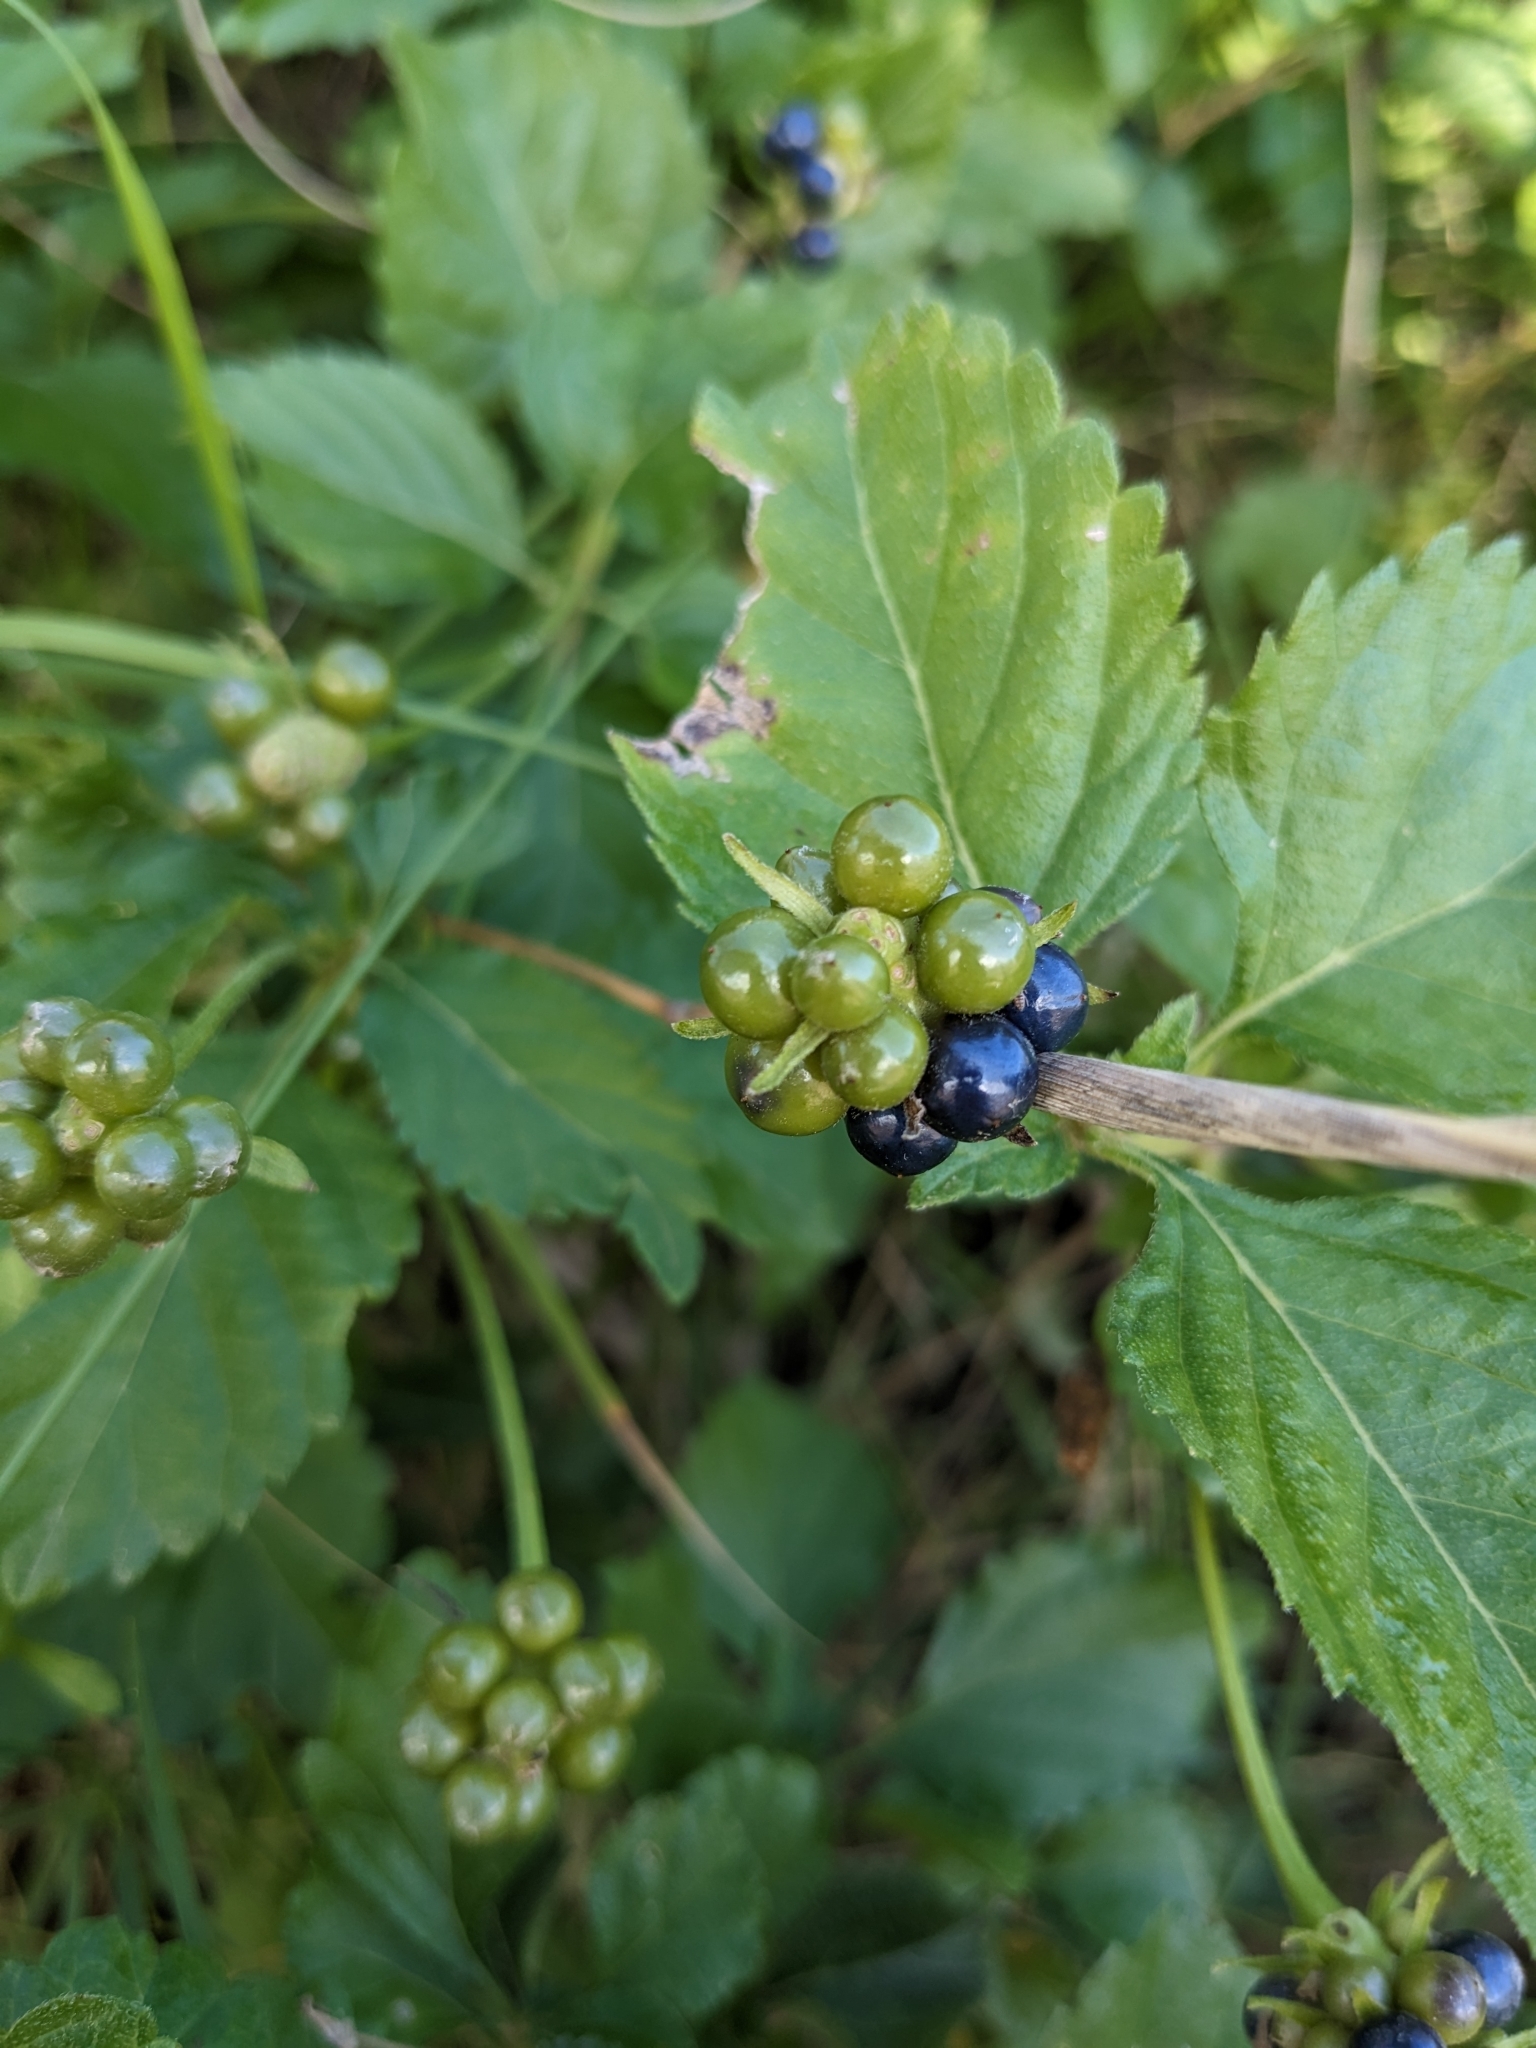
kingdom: Plantae
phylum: Tracheophyta
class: Magnoliopsida
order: Lamiales
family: Verbenaceae
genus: Lantana
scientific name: Lantana camara
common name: Lantana
